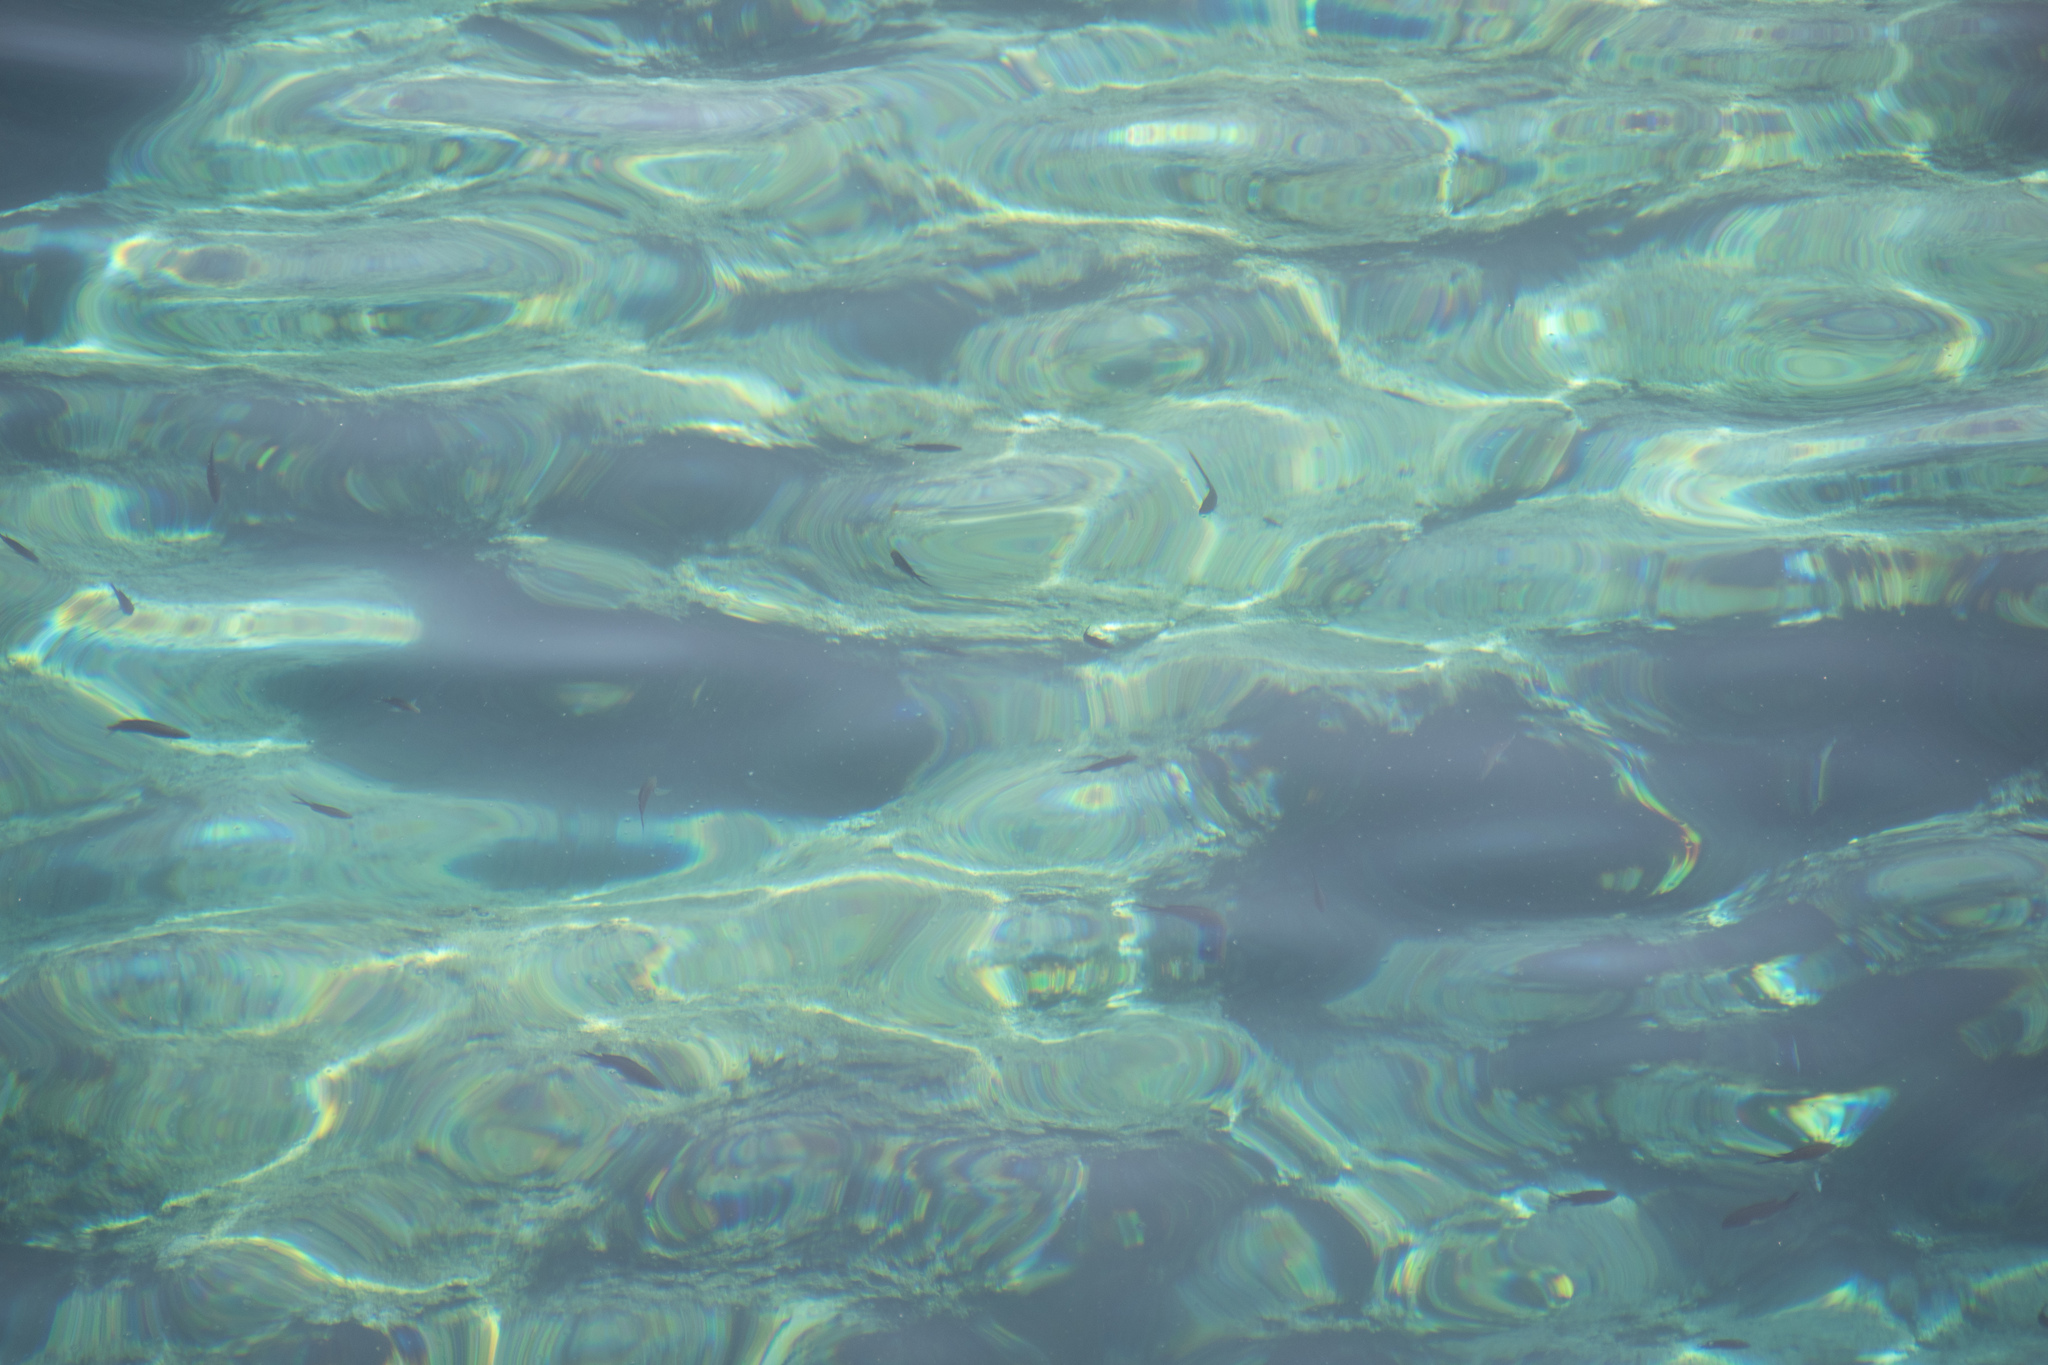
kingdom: Animalia
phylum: Chordata
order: Perciformes
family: Pomacentridae
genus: Chromis
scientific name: Chromis chromis
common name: Damselfish
